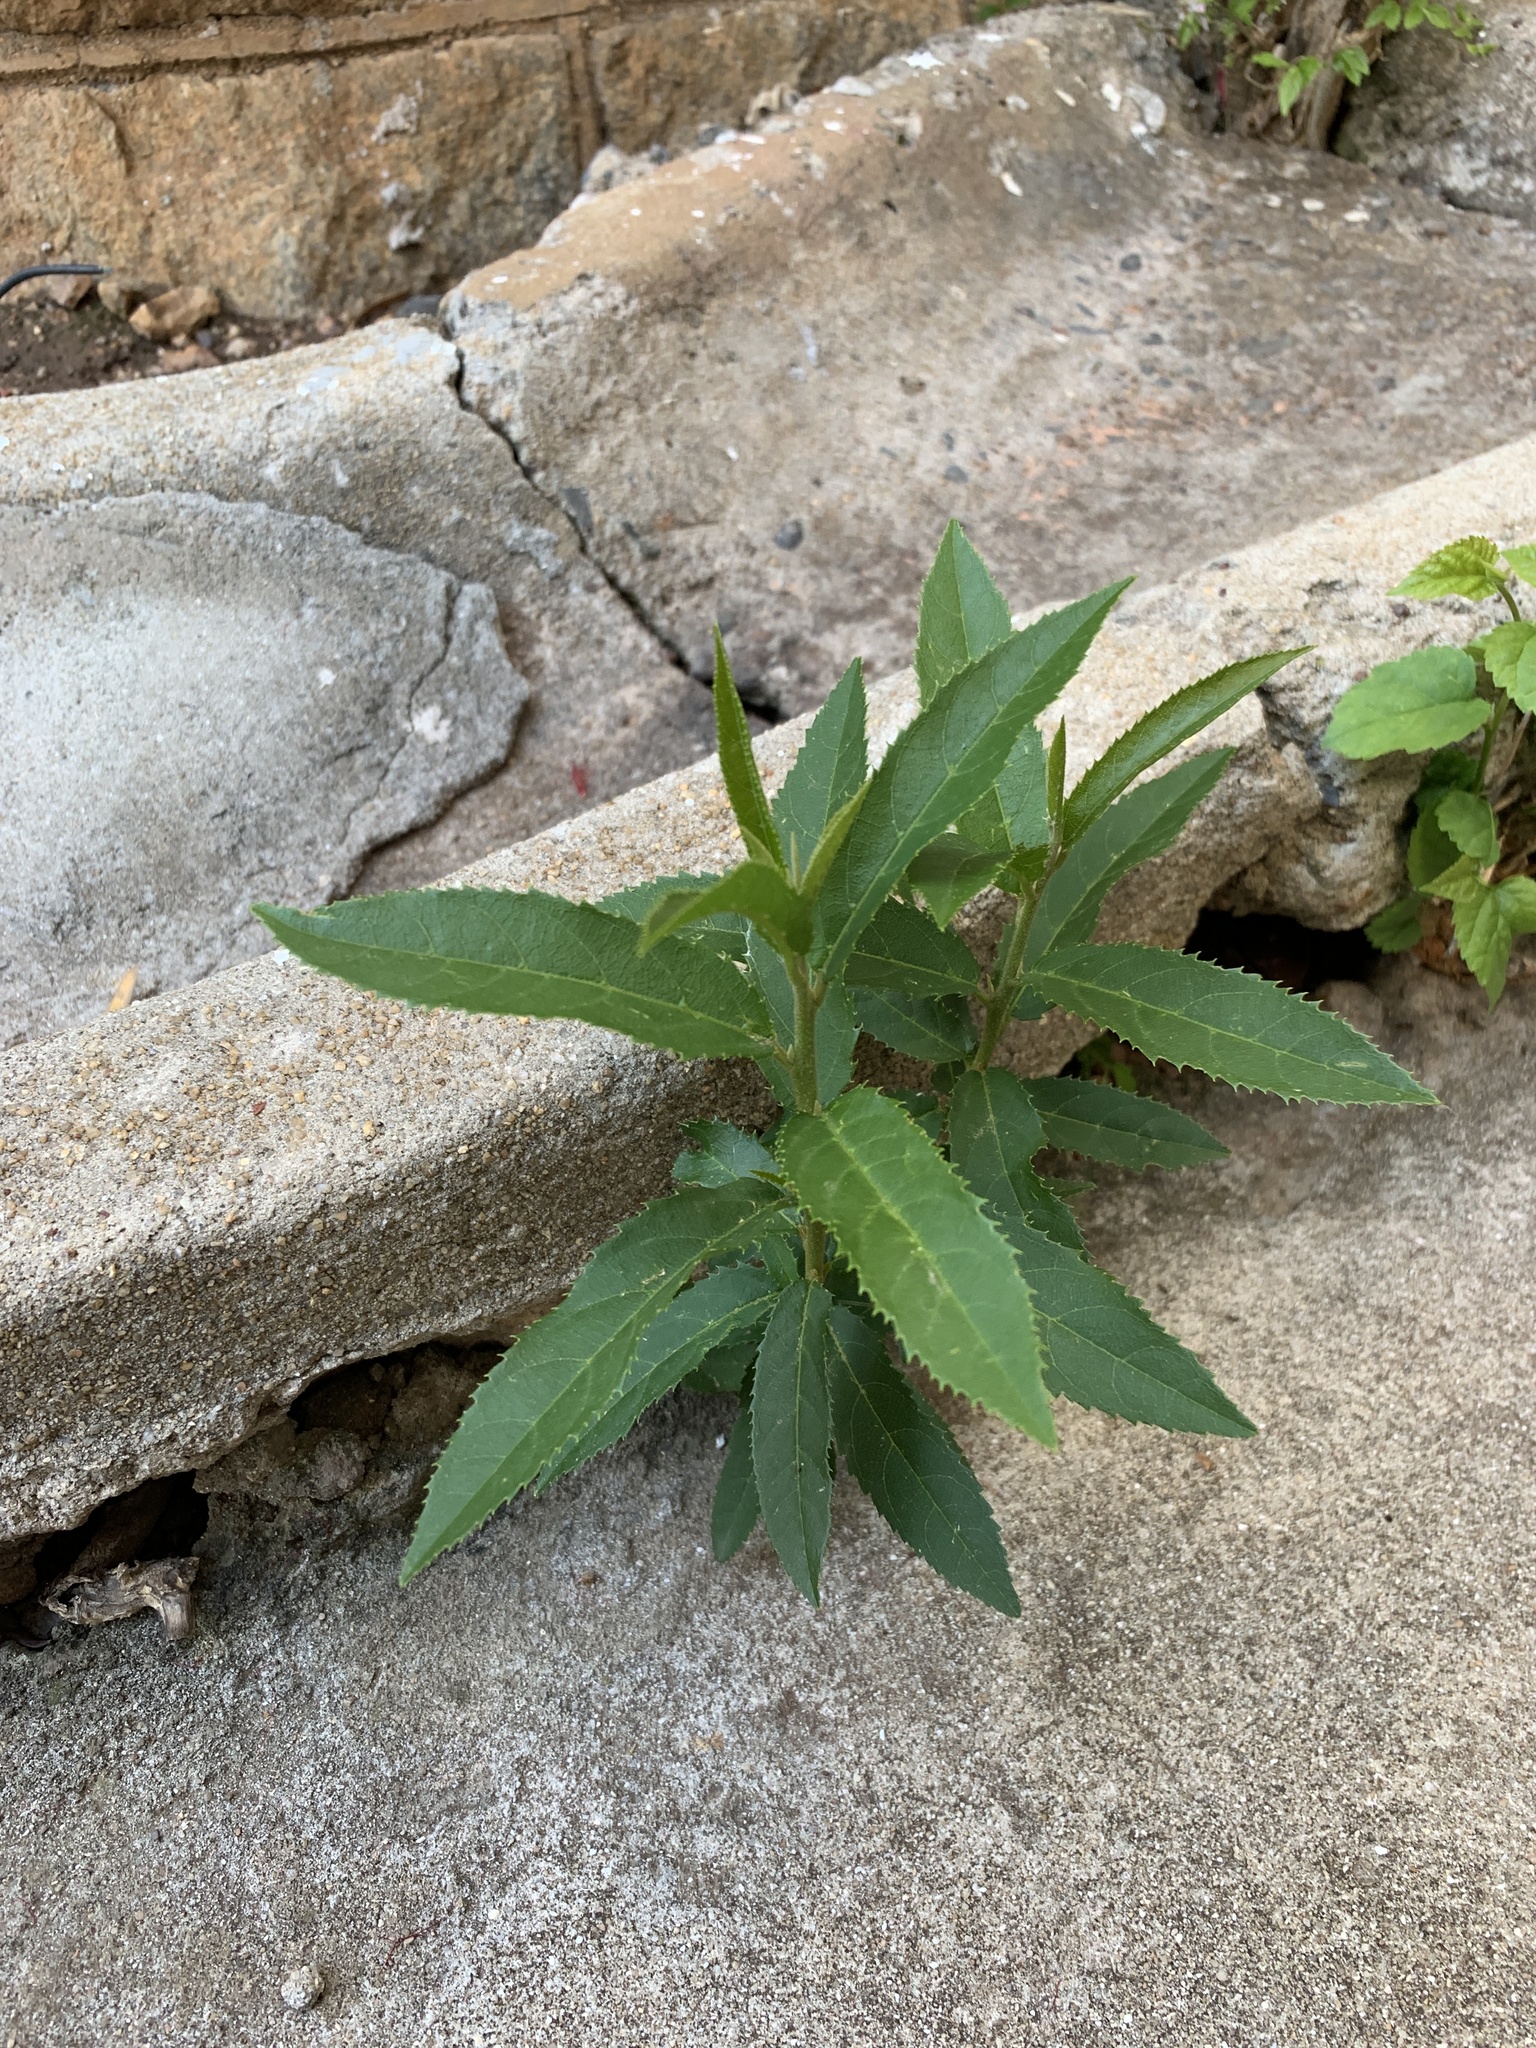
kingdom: Plantae
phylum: Tracheophyta
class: Magnoliopsida
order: Malpighiales
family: Achariaceae
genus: Kiggelaria
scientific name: Kiggelaria africana
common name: Wild peach
